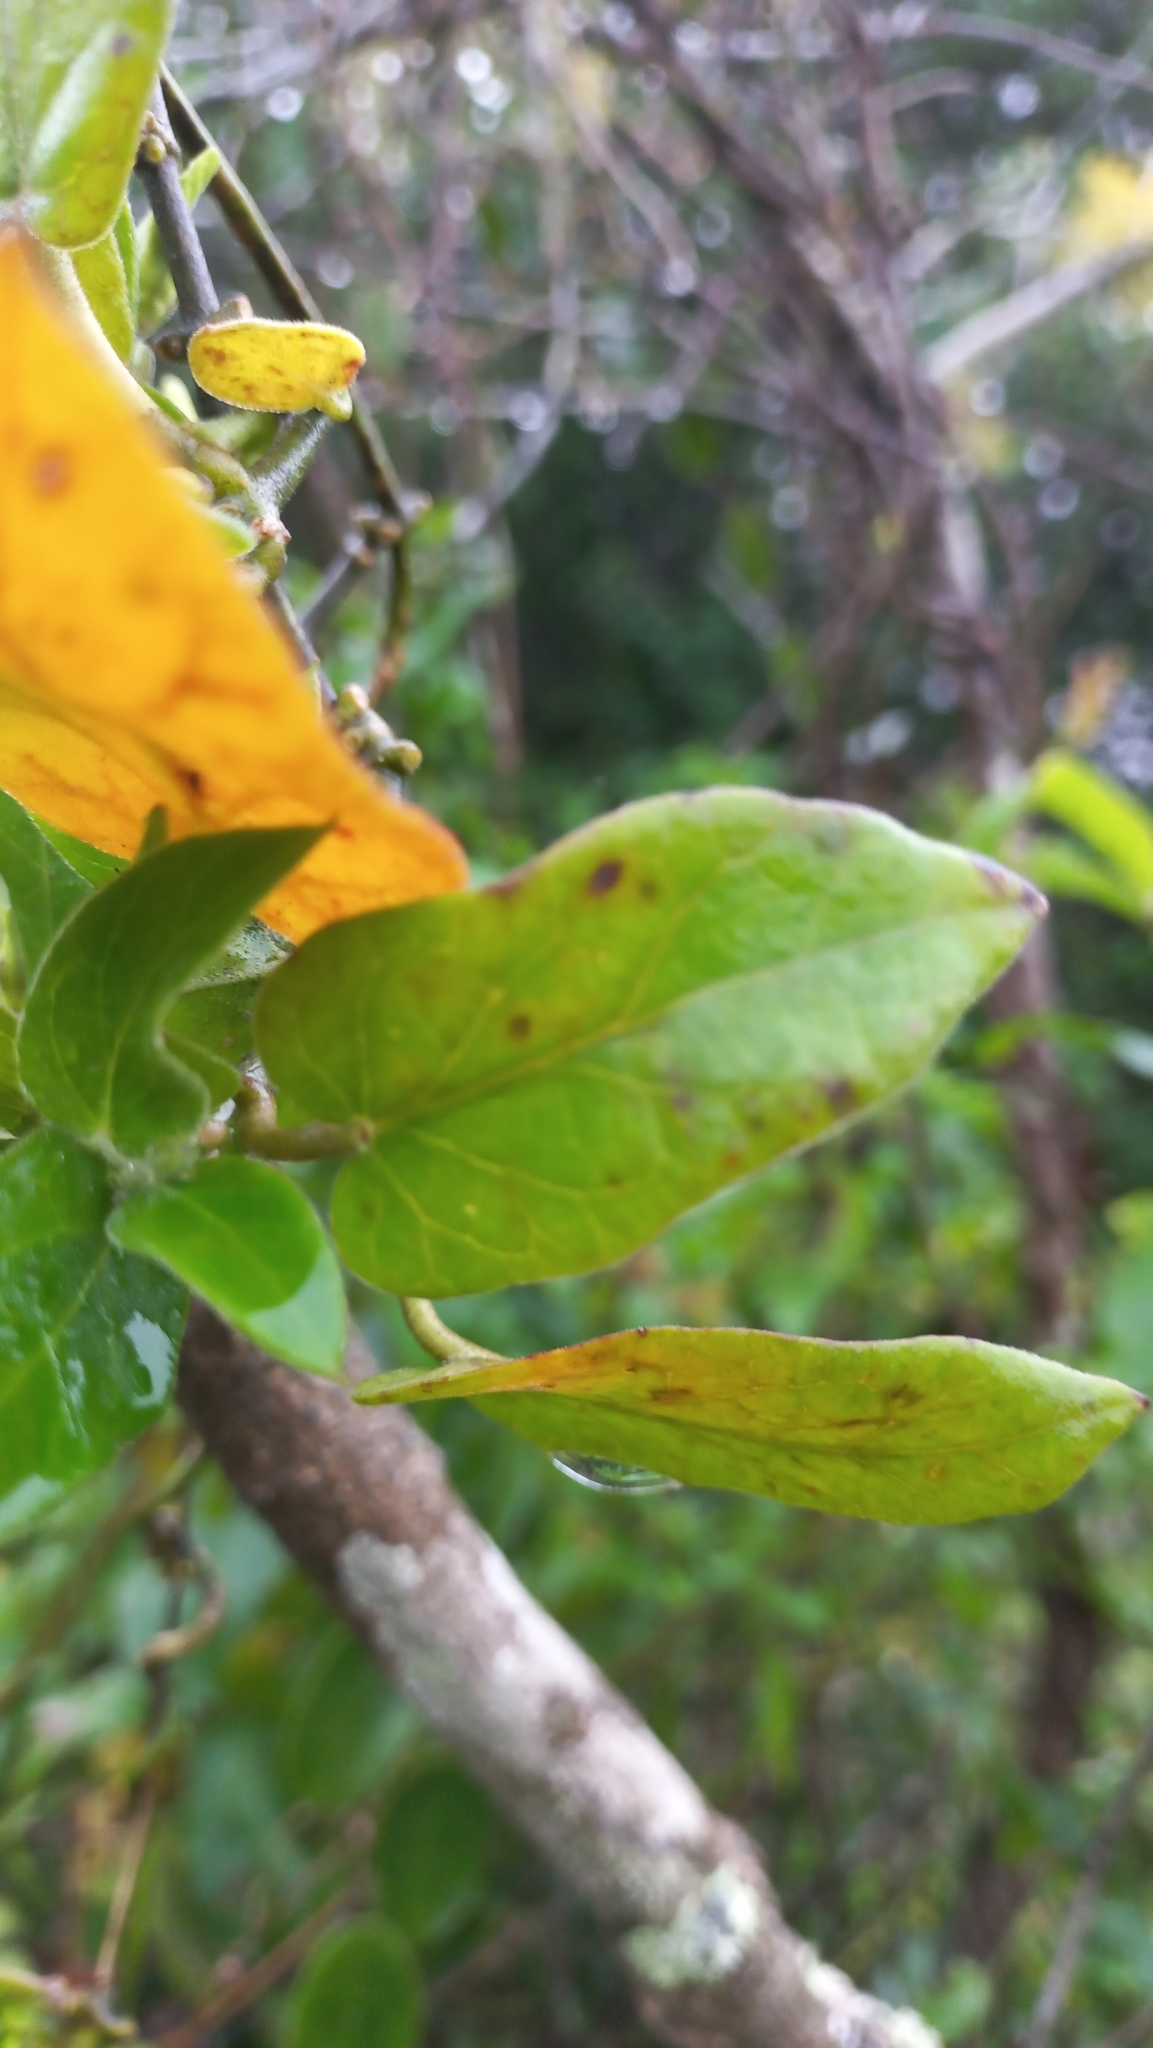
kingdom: Plantae
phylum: Tracheophyta
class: Magnoliopsida
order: Gentianales
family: Apocynaceae
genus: Oxypetalum
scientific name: Oxypetalum banksii
